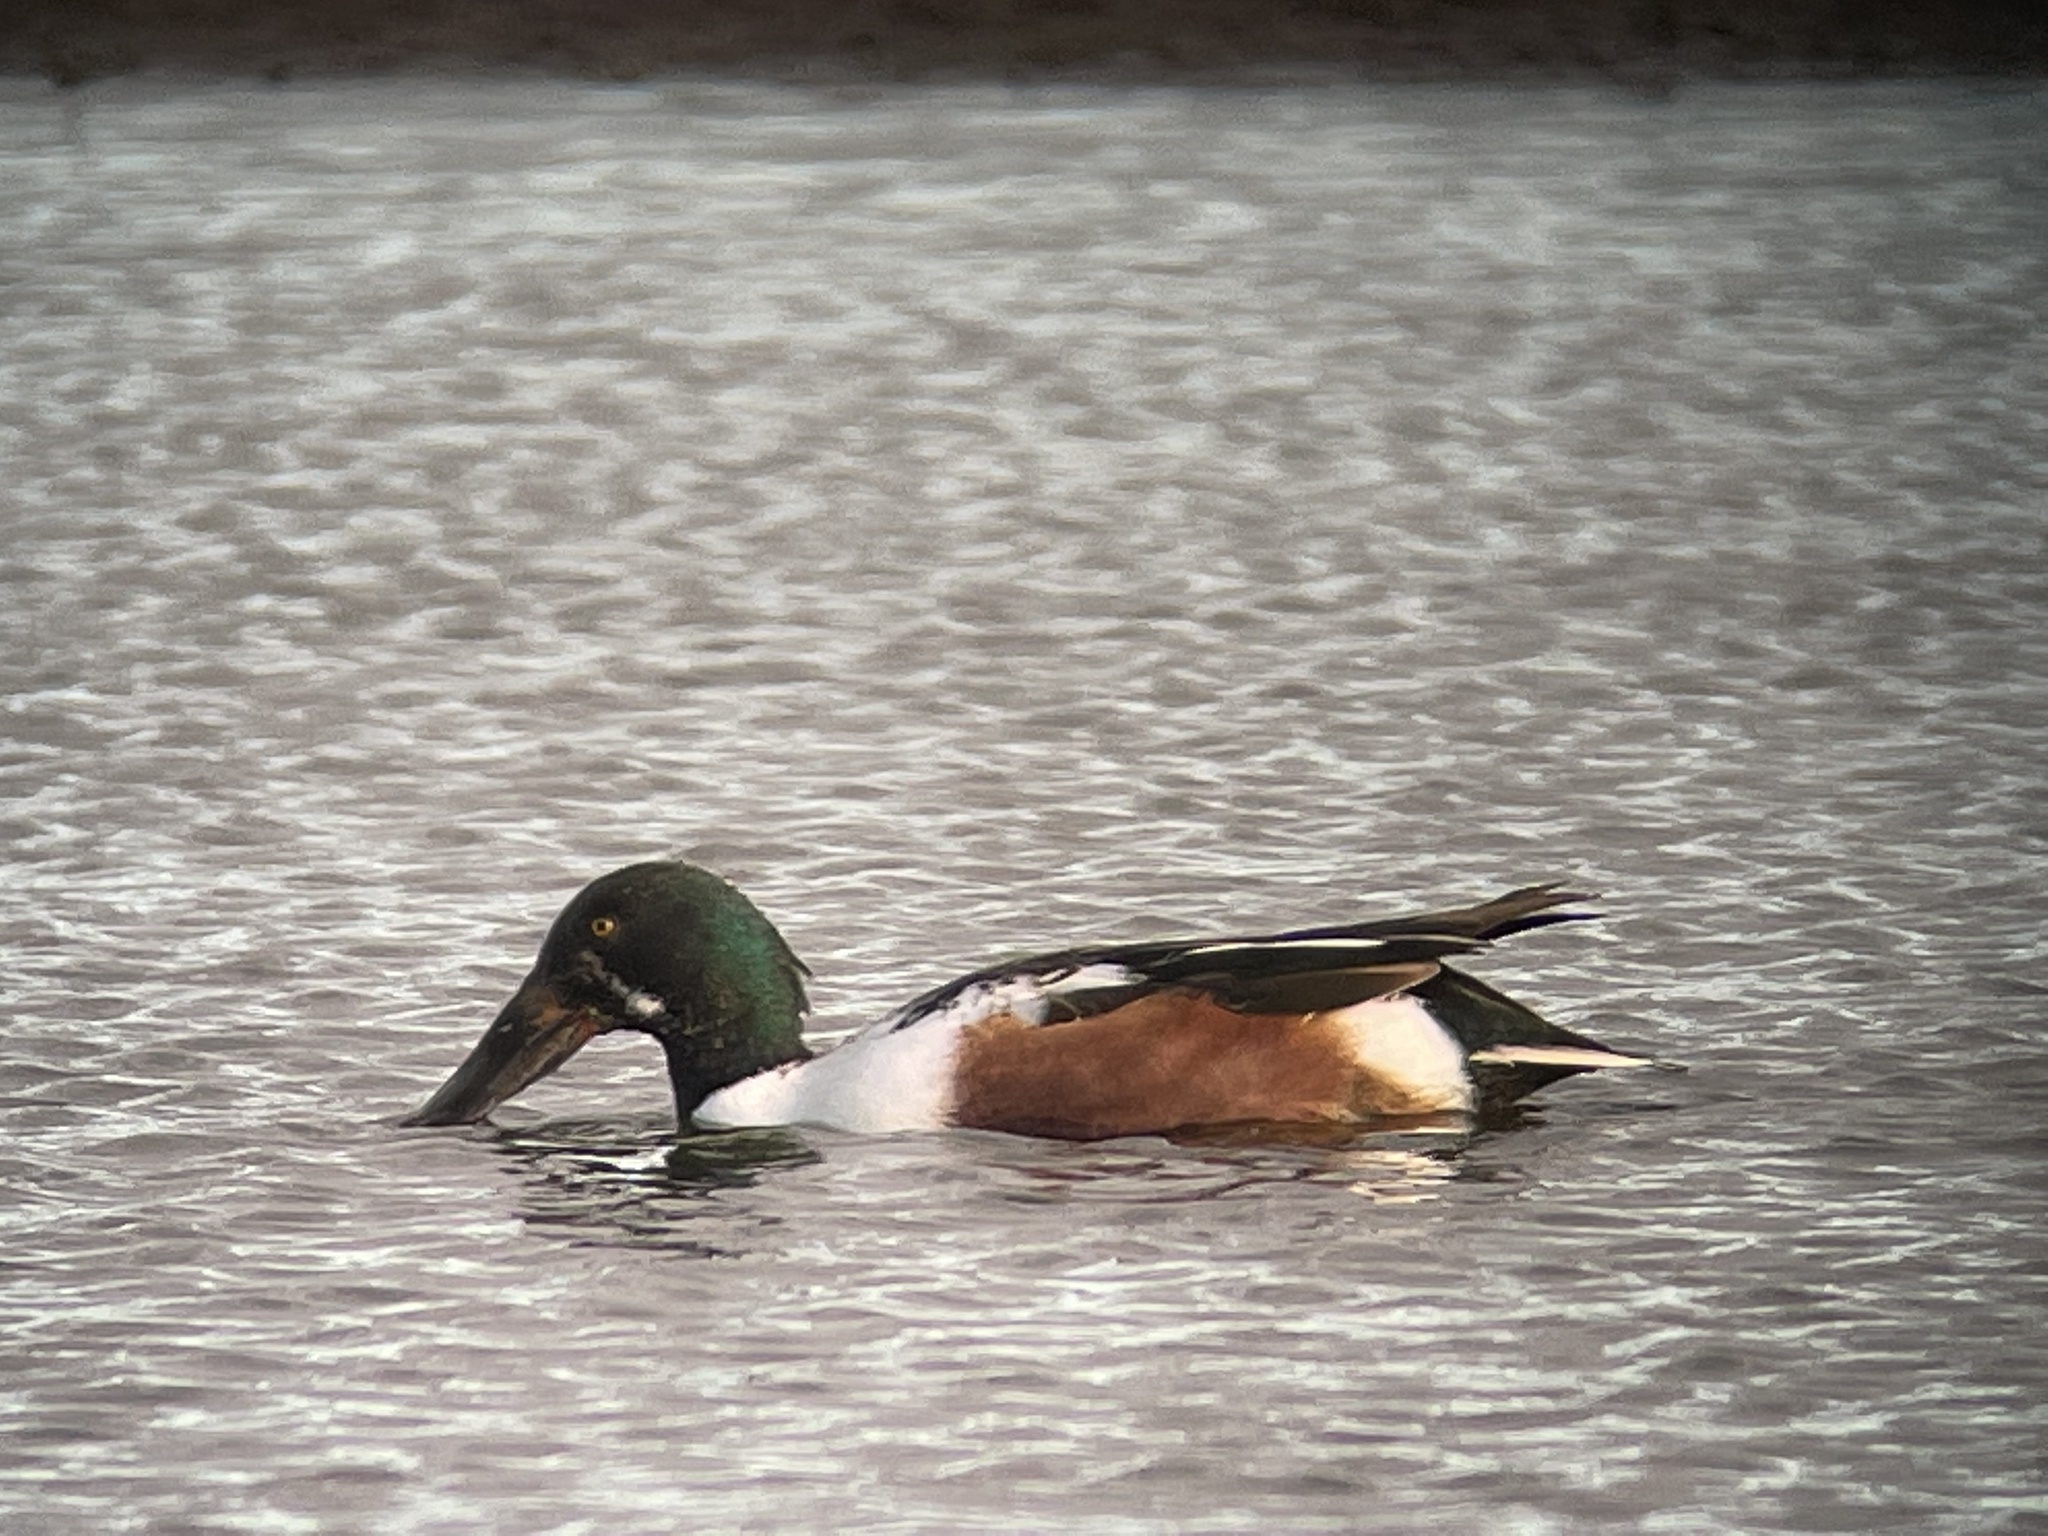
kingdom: Animalia
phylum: Chordata
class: Aves
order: Anseriformes
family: Anatidae
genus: Spatula
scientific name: Spatula clypeata
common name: Northern shoveler
